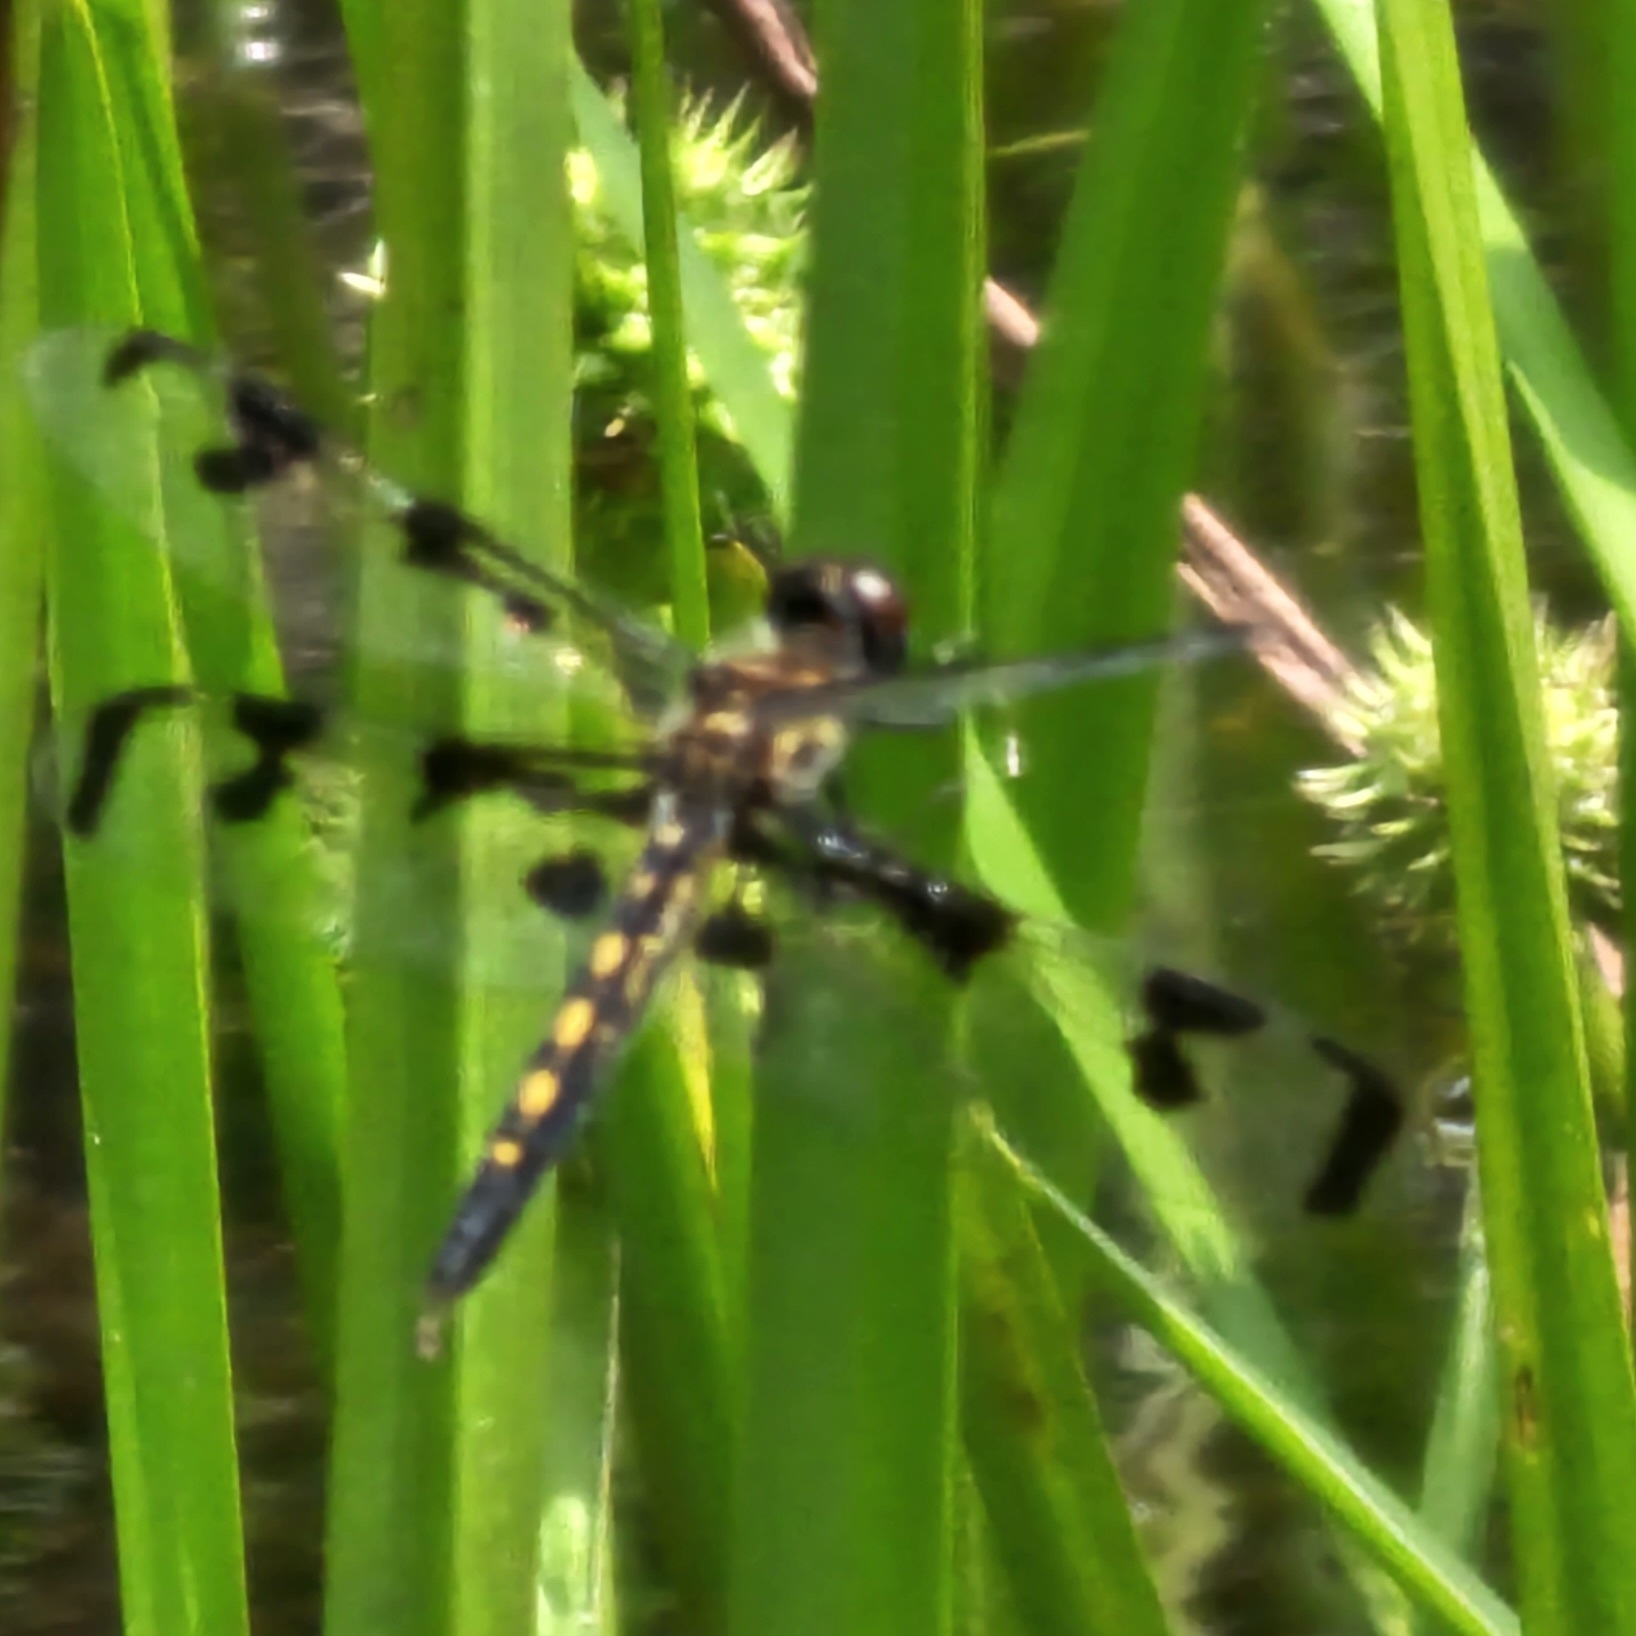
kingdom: Animalia
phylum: Arthropoda
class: Insecta
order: Odonata
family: Libellulidae
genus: Celithemis
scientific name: Celithemis fasciata
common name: Banded pennant
